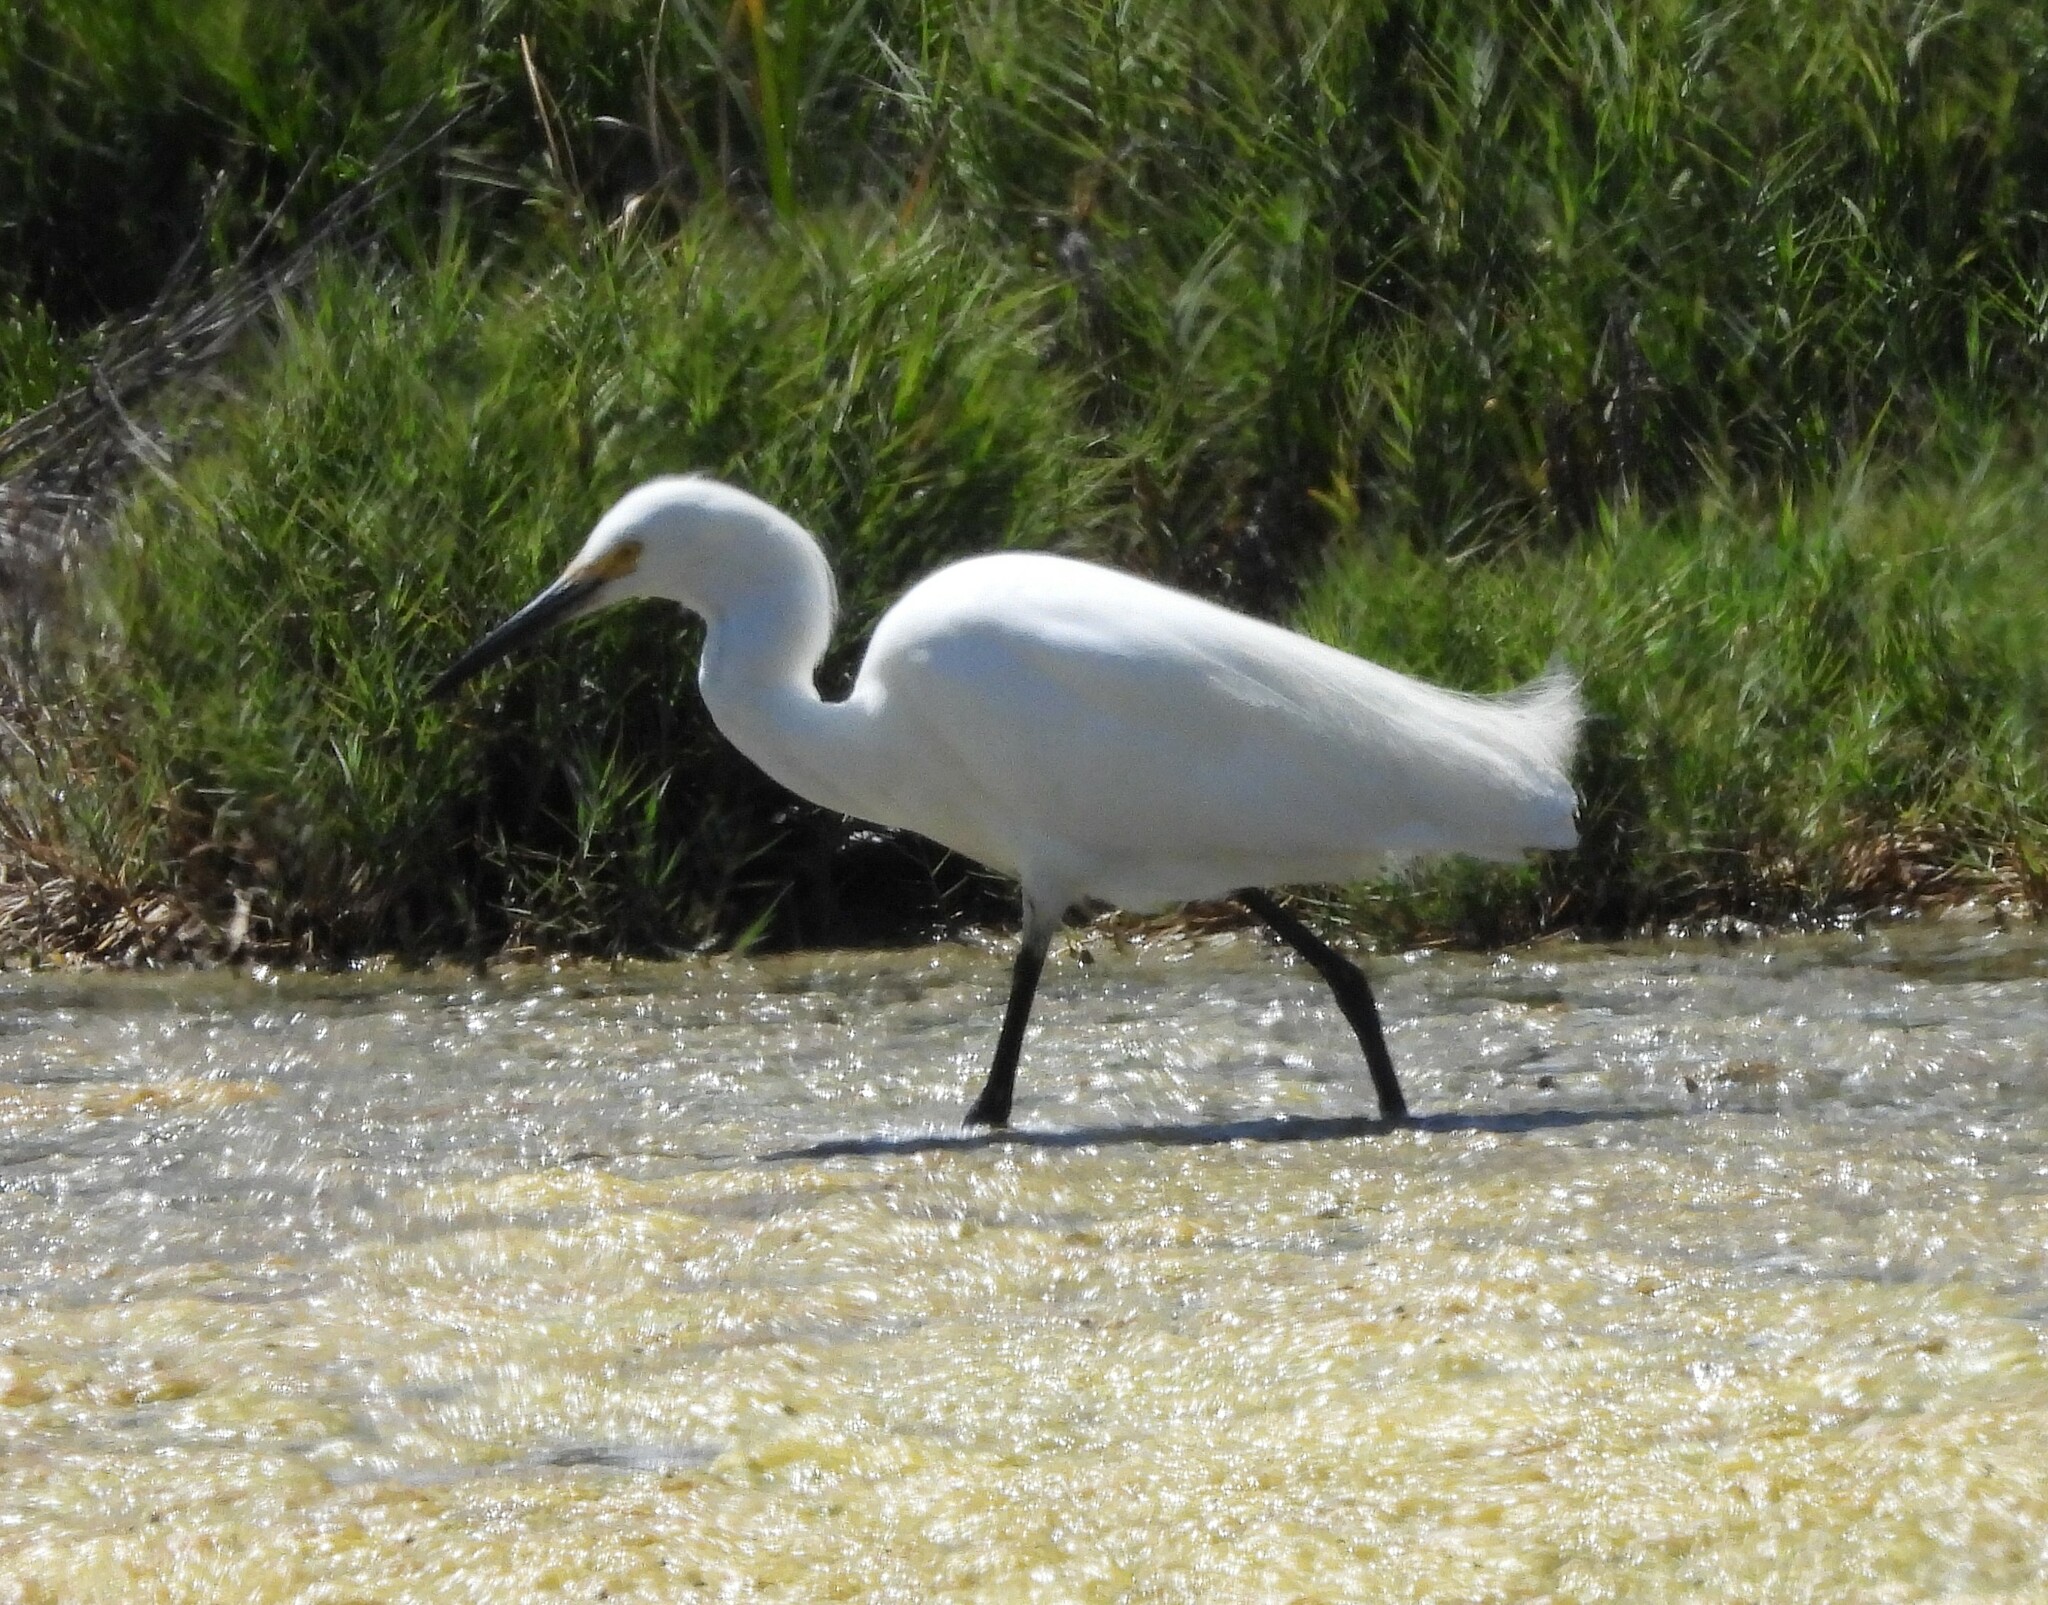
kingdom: Animalia
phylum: Chordata
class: Aves
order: Pelecaniformes
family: Ardeidae
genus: Egretta
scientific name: Egretta thula
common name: Snowy egret
